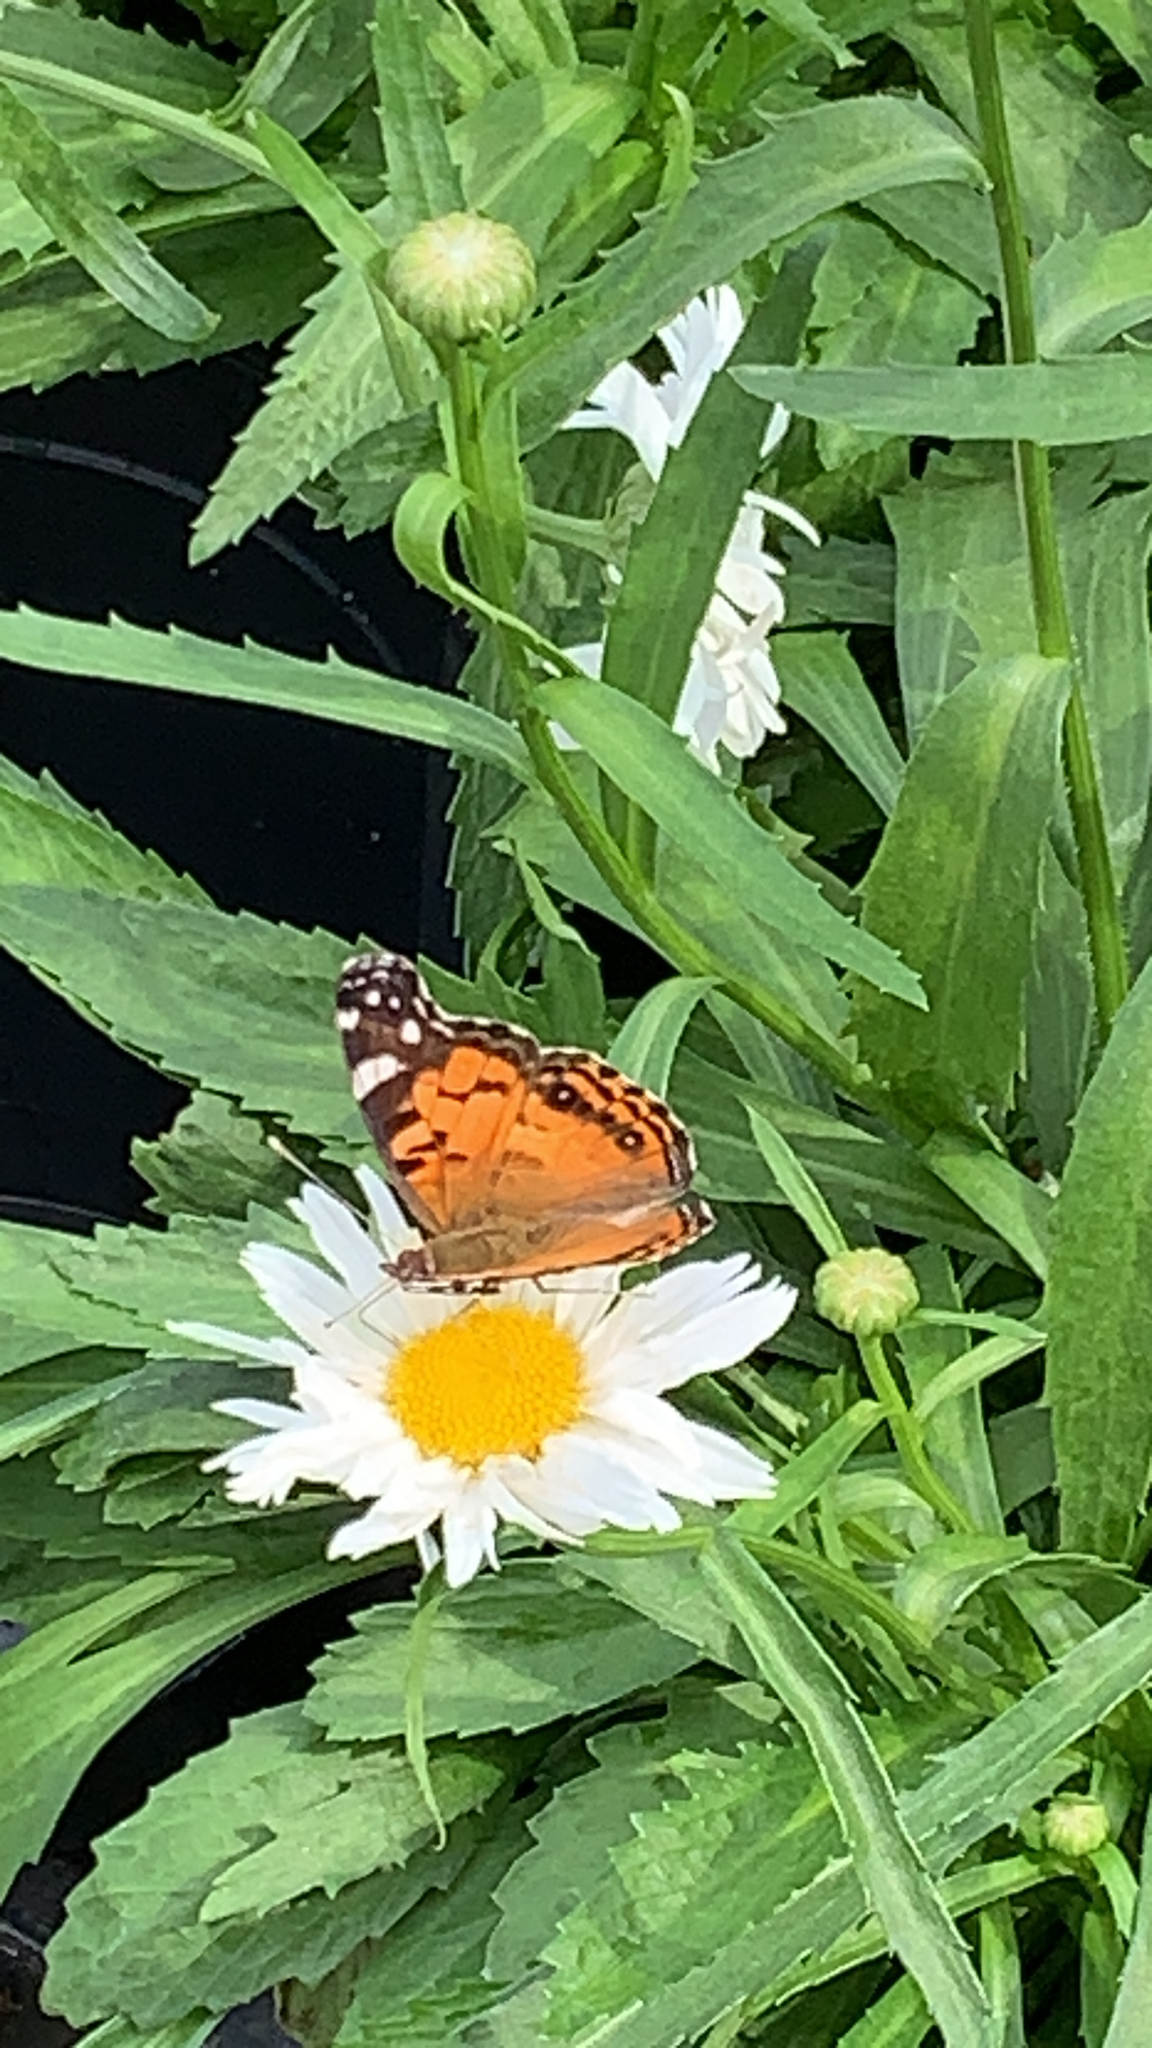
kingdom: Animalia
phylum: Arthropoda
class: Insecta
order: Lepidoptera
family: Nymphalidae
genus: Vanessa
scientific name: Vanessa virginiensis
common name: American lady
